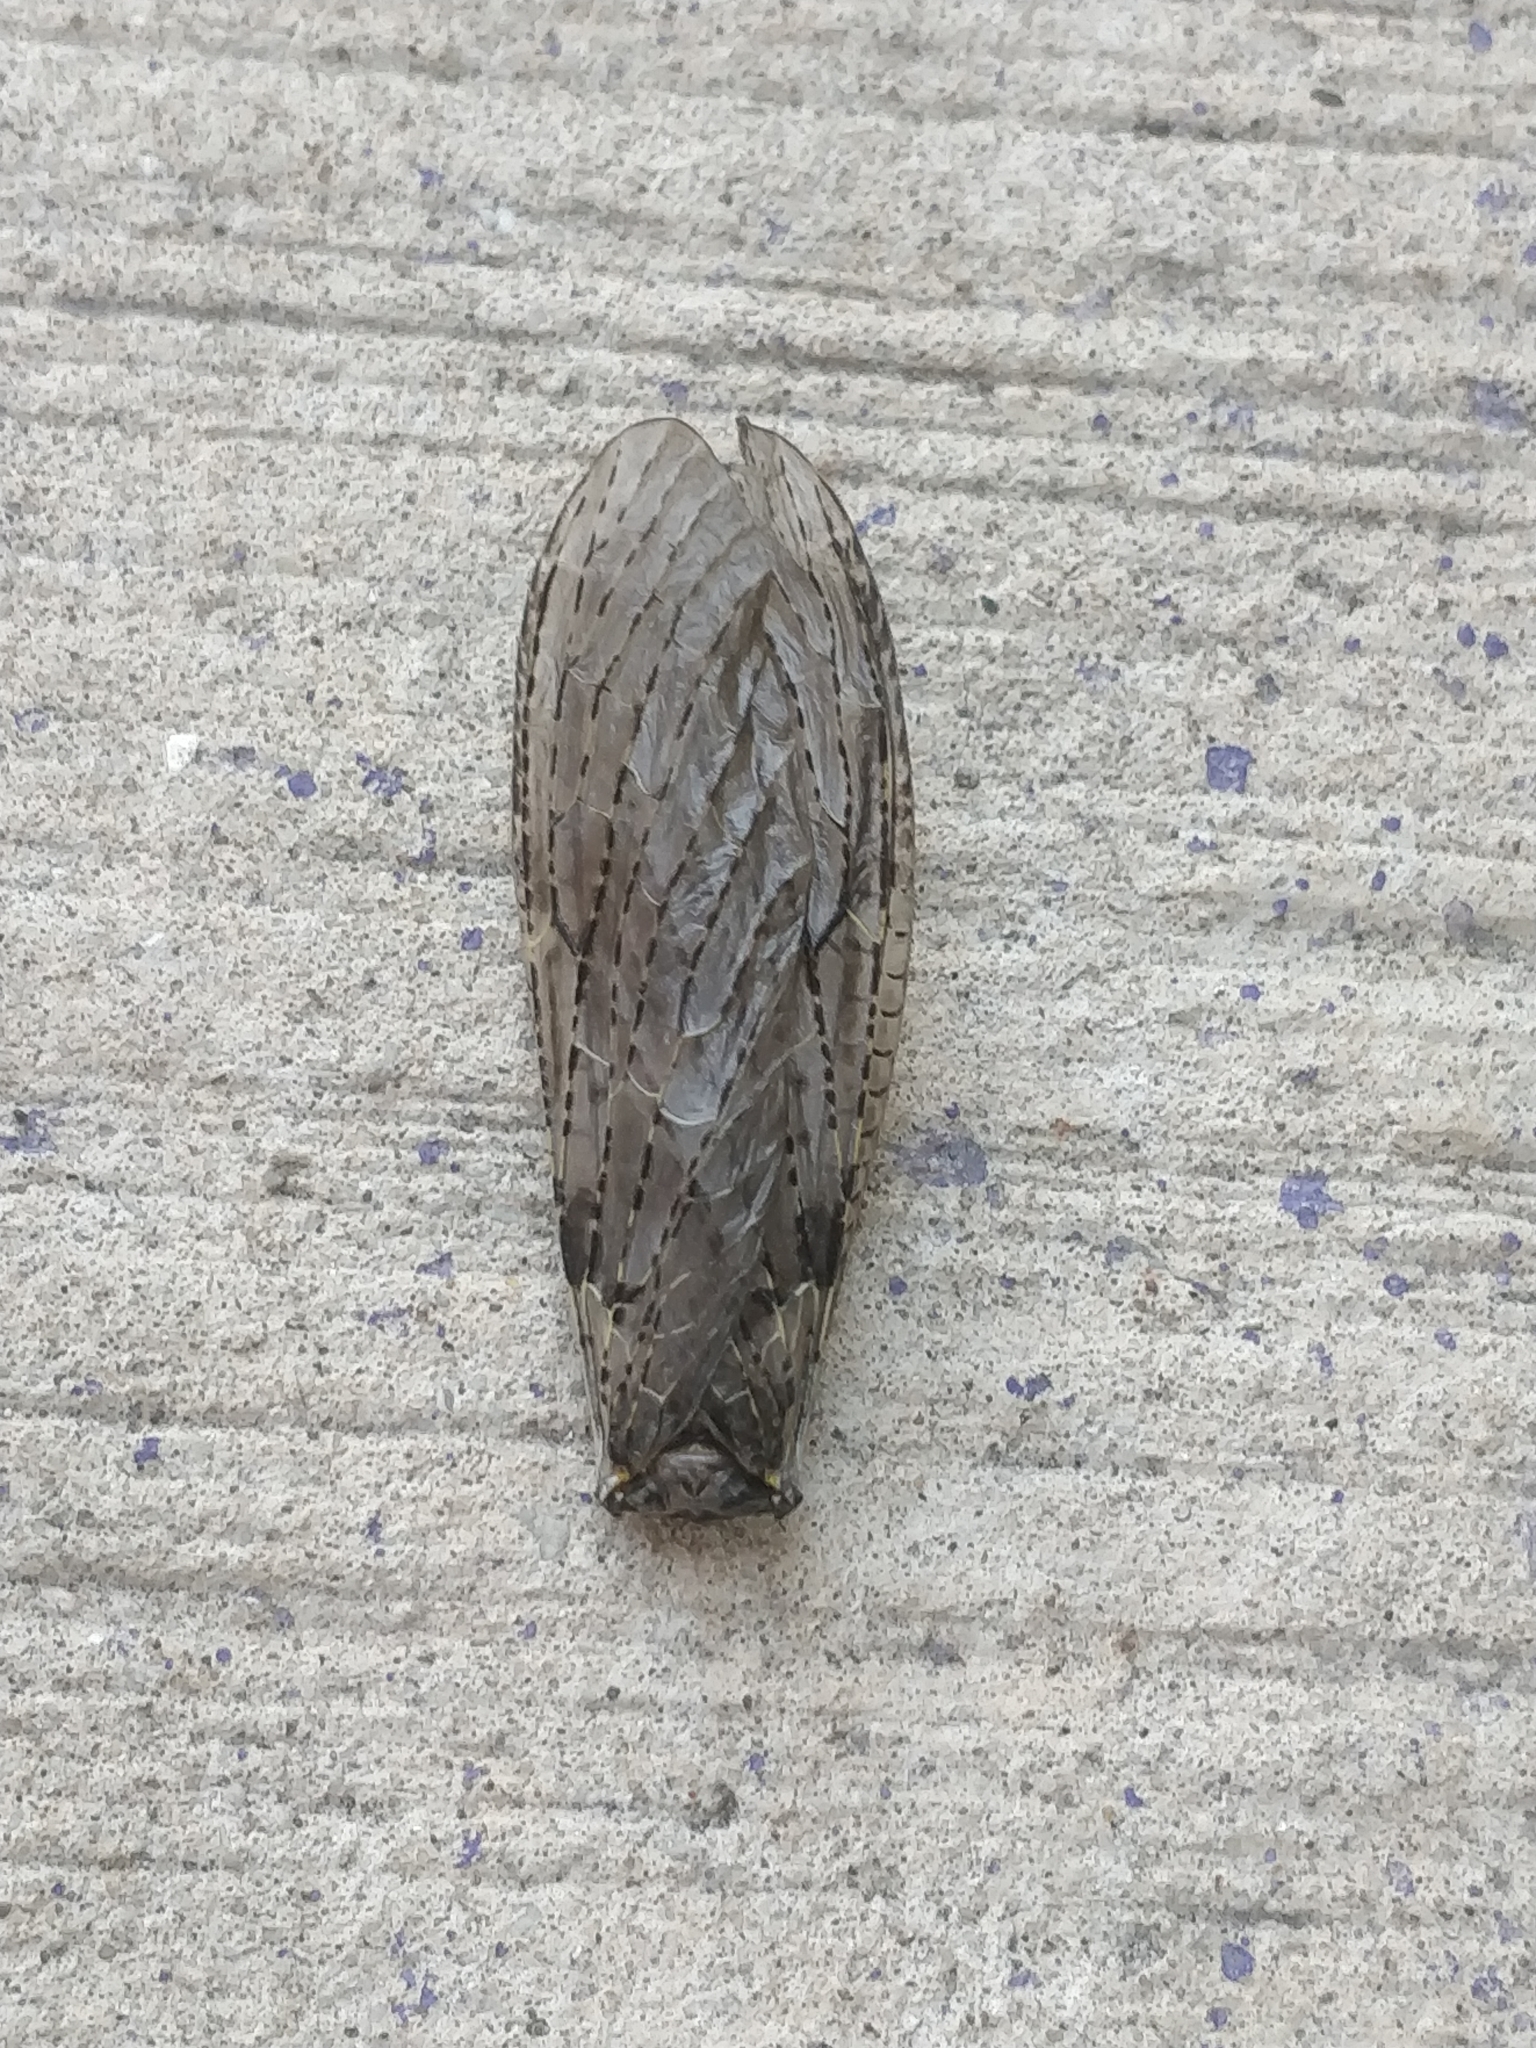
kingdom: Animalia
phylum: Arthropoda
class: Insecta
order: Megaloptera
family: Corydalidae
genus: Chauliodes
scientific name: Chauliodes
